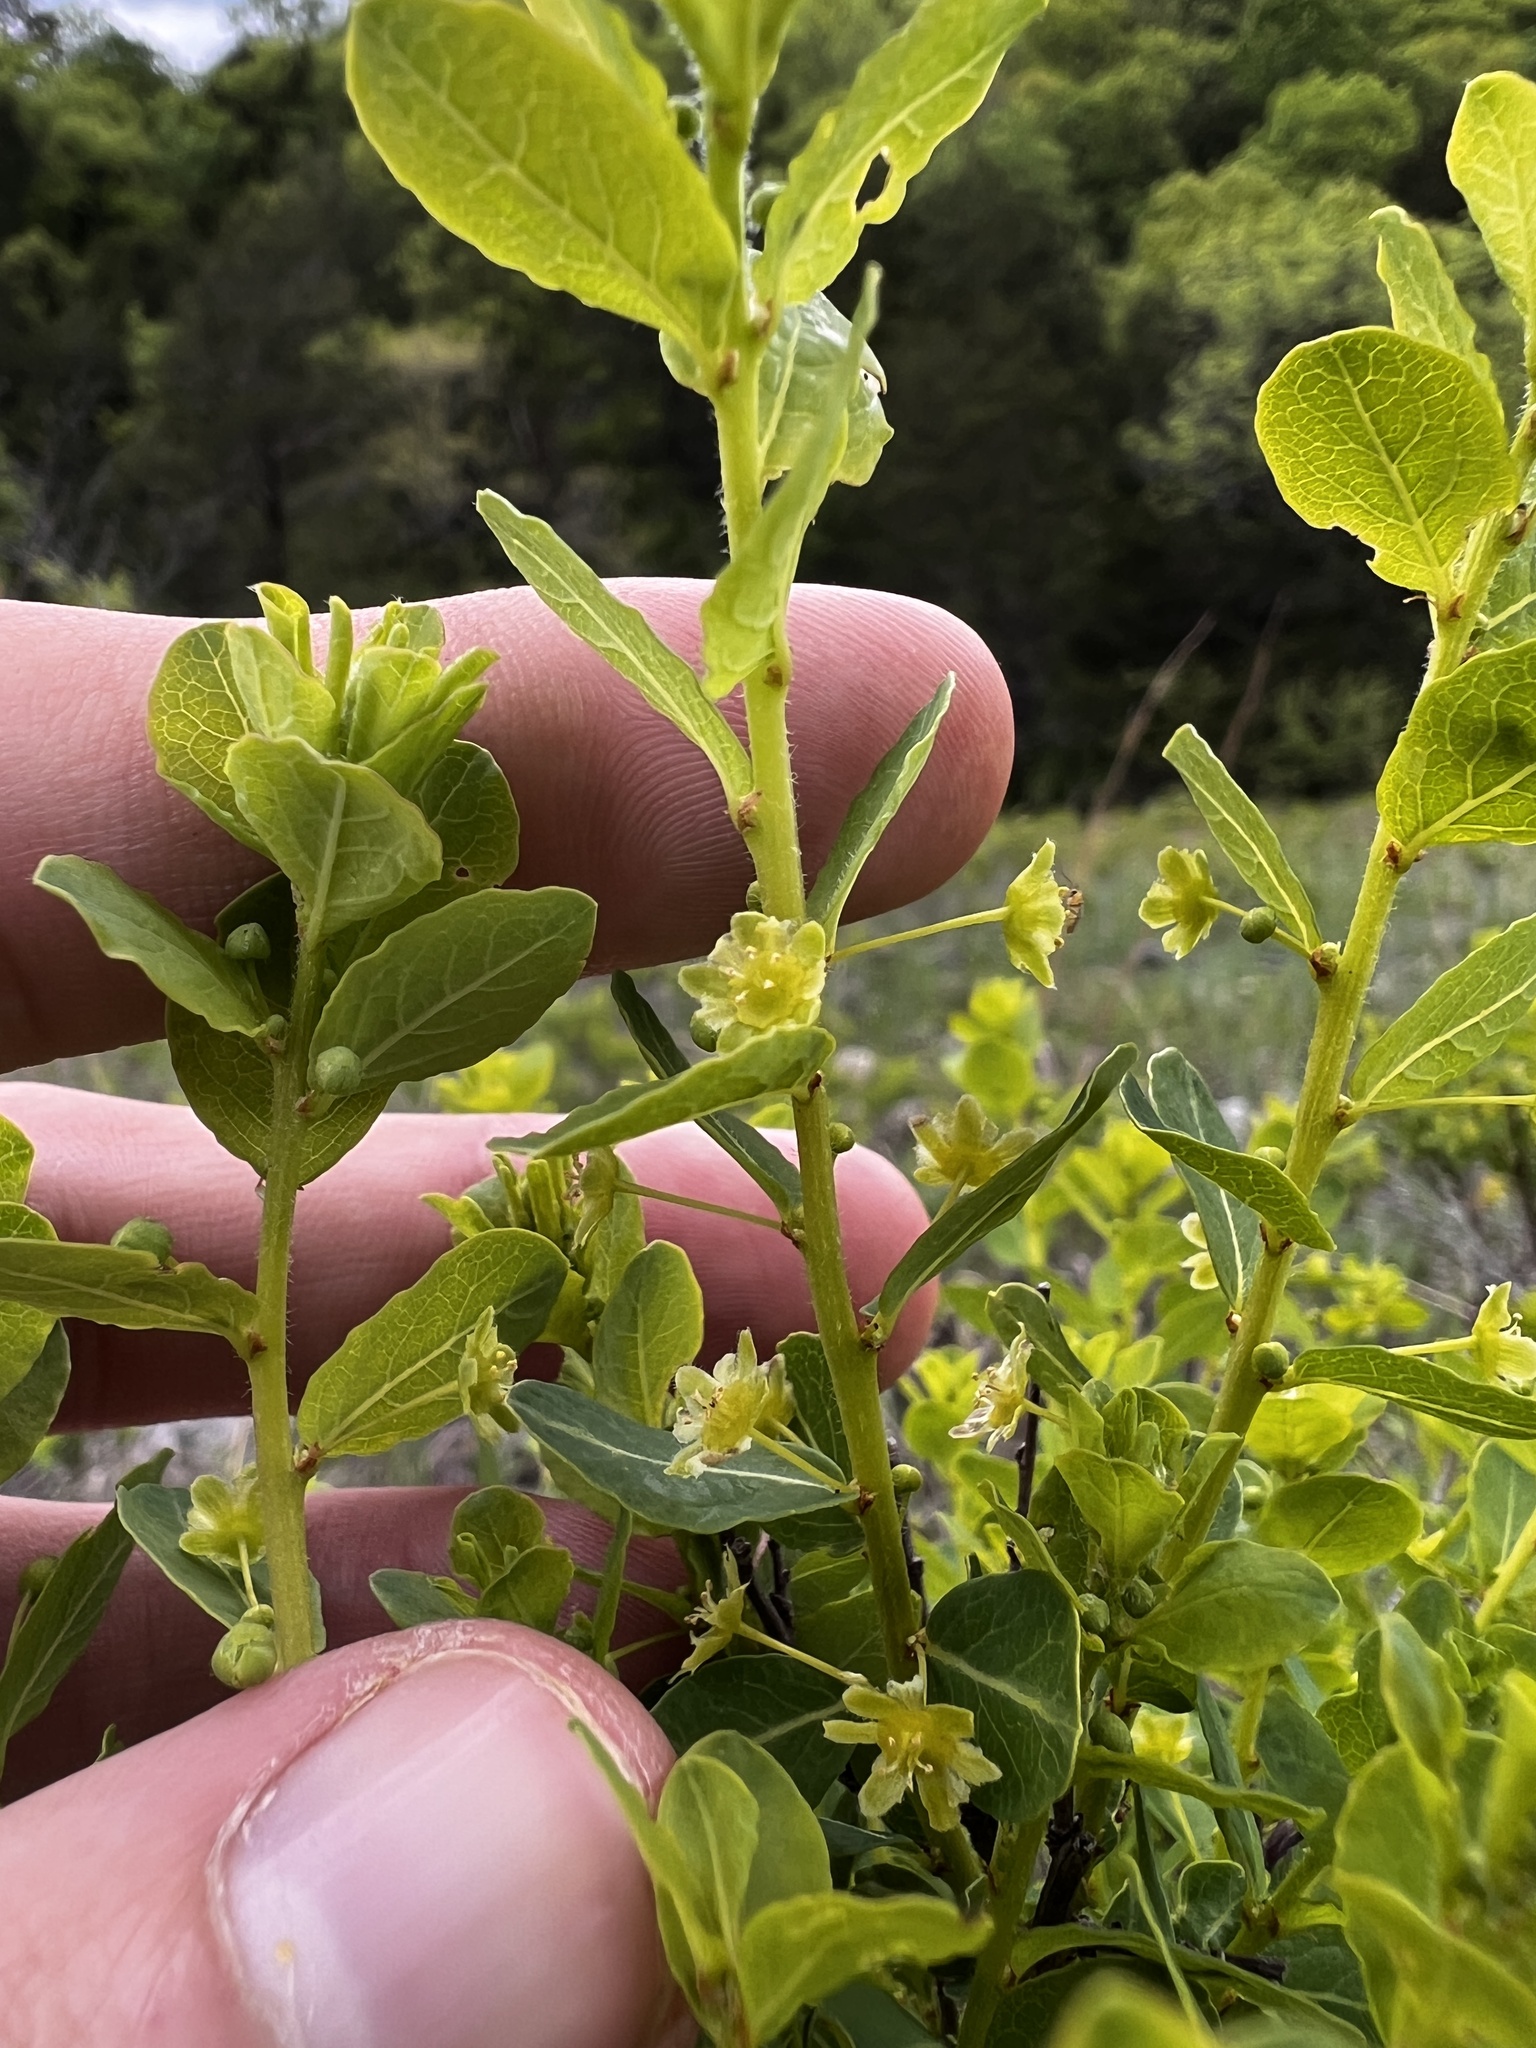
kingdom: Plantae
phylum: Tracheophyta
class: Magnoliopsida
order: Malpighiales
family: Phyllanthaceae
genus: Phyllanthopsis
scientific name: Phyllanthopsis phyllanthoides
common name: Missouri maidenbush
